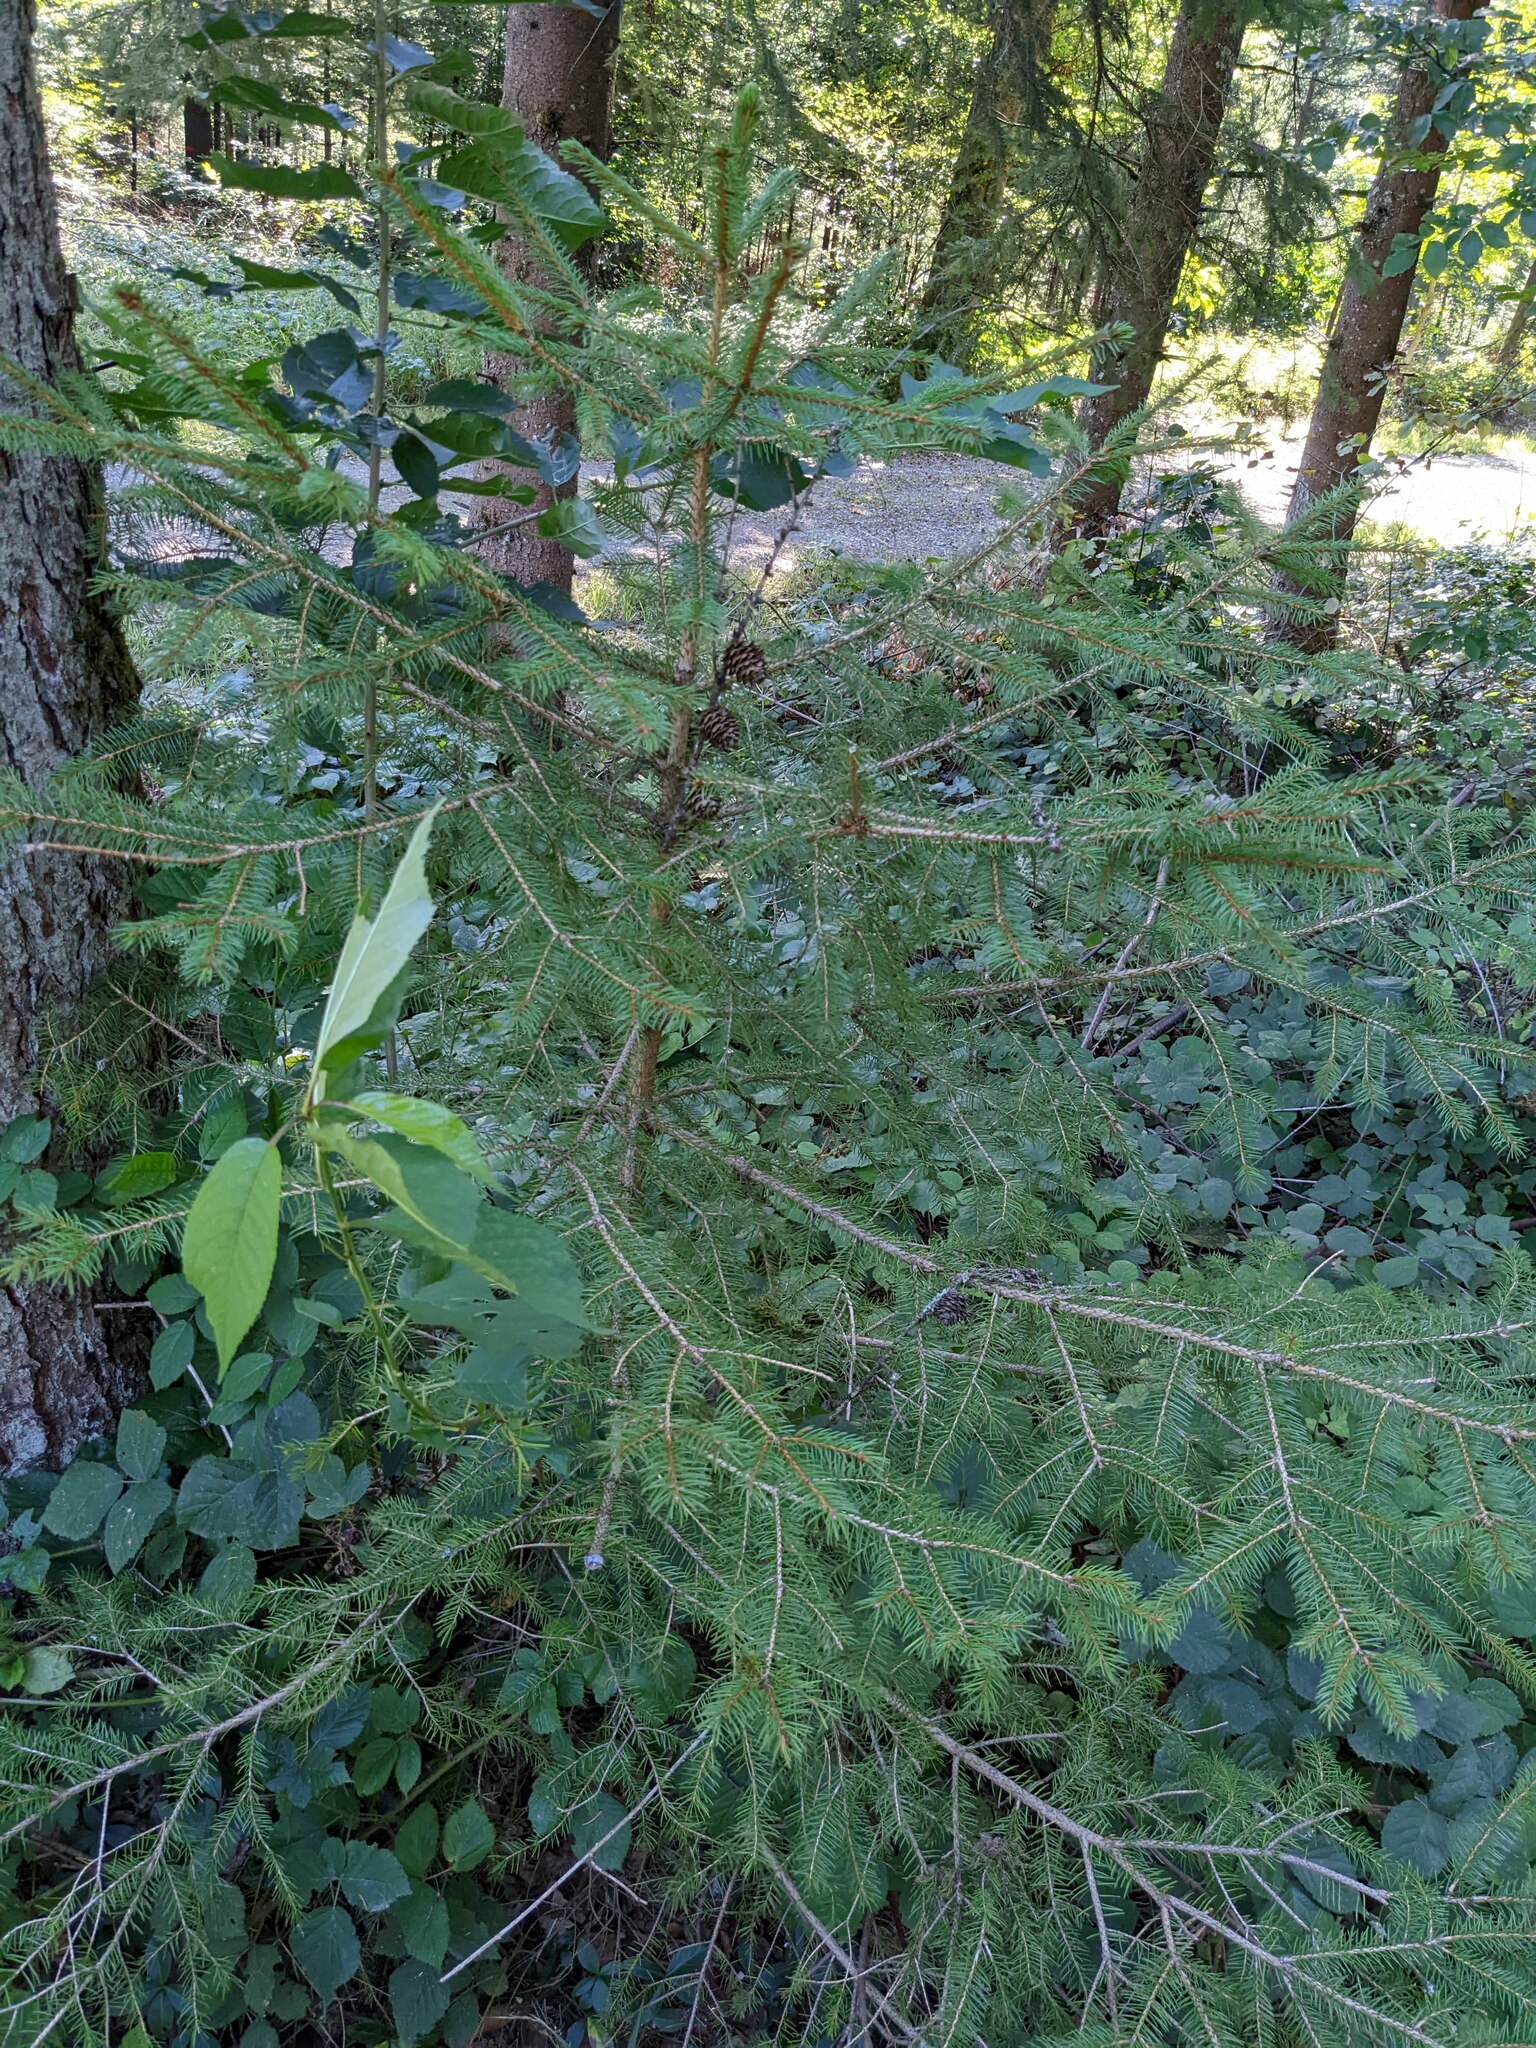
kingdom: Plantae
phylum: Tracheophyta
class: Pinopsida
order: Pinales
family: Pinaceae
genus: Picea
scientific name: Picea abies
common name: Norway spruce
